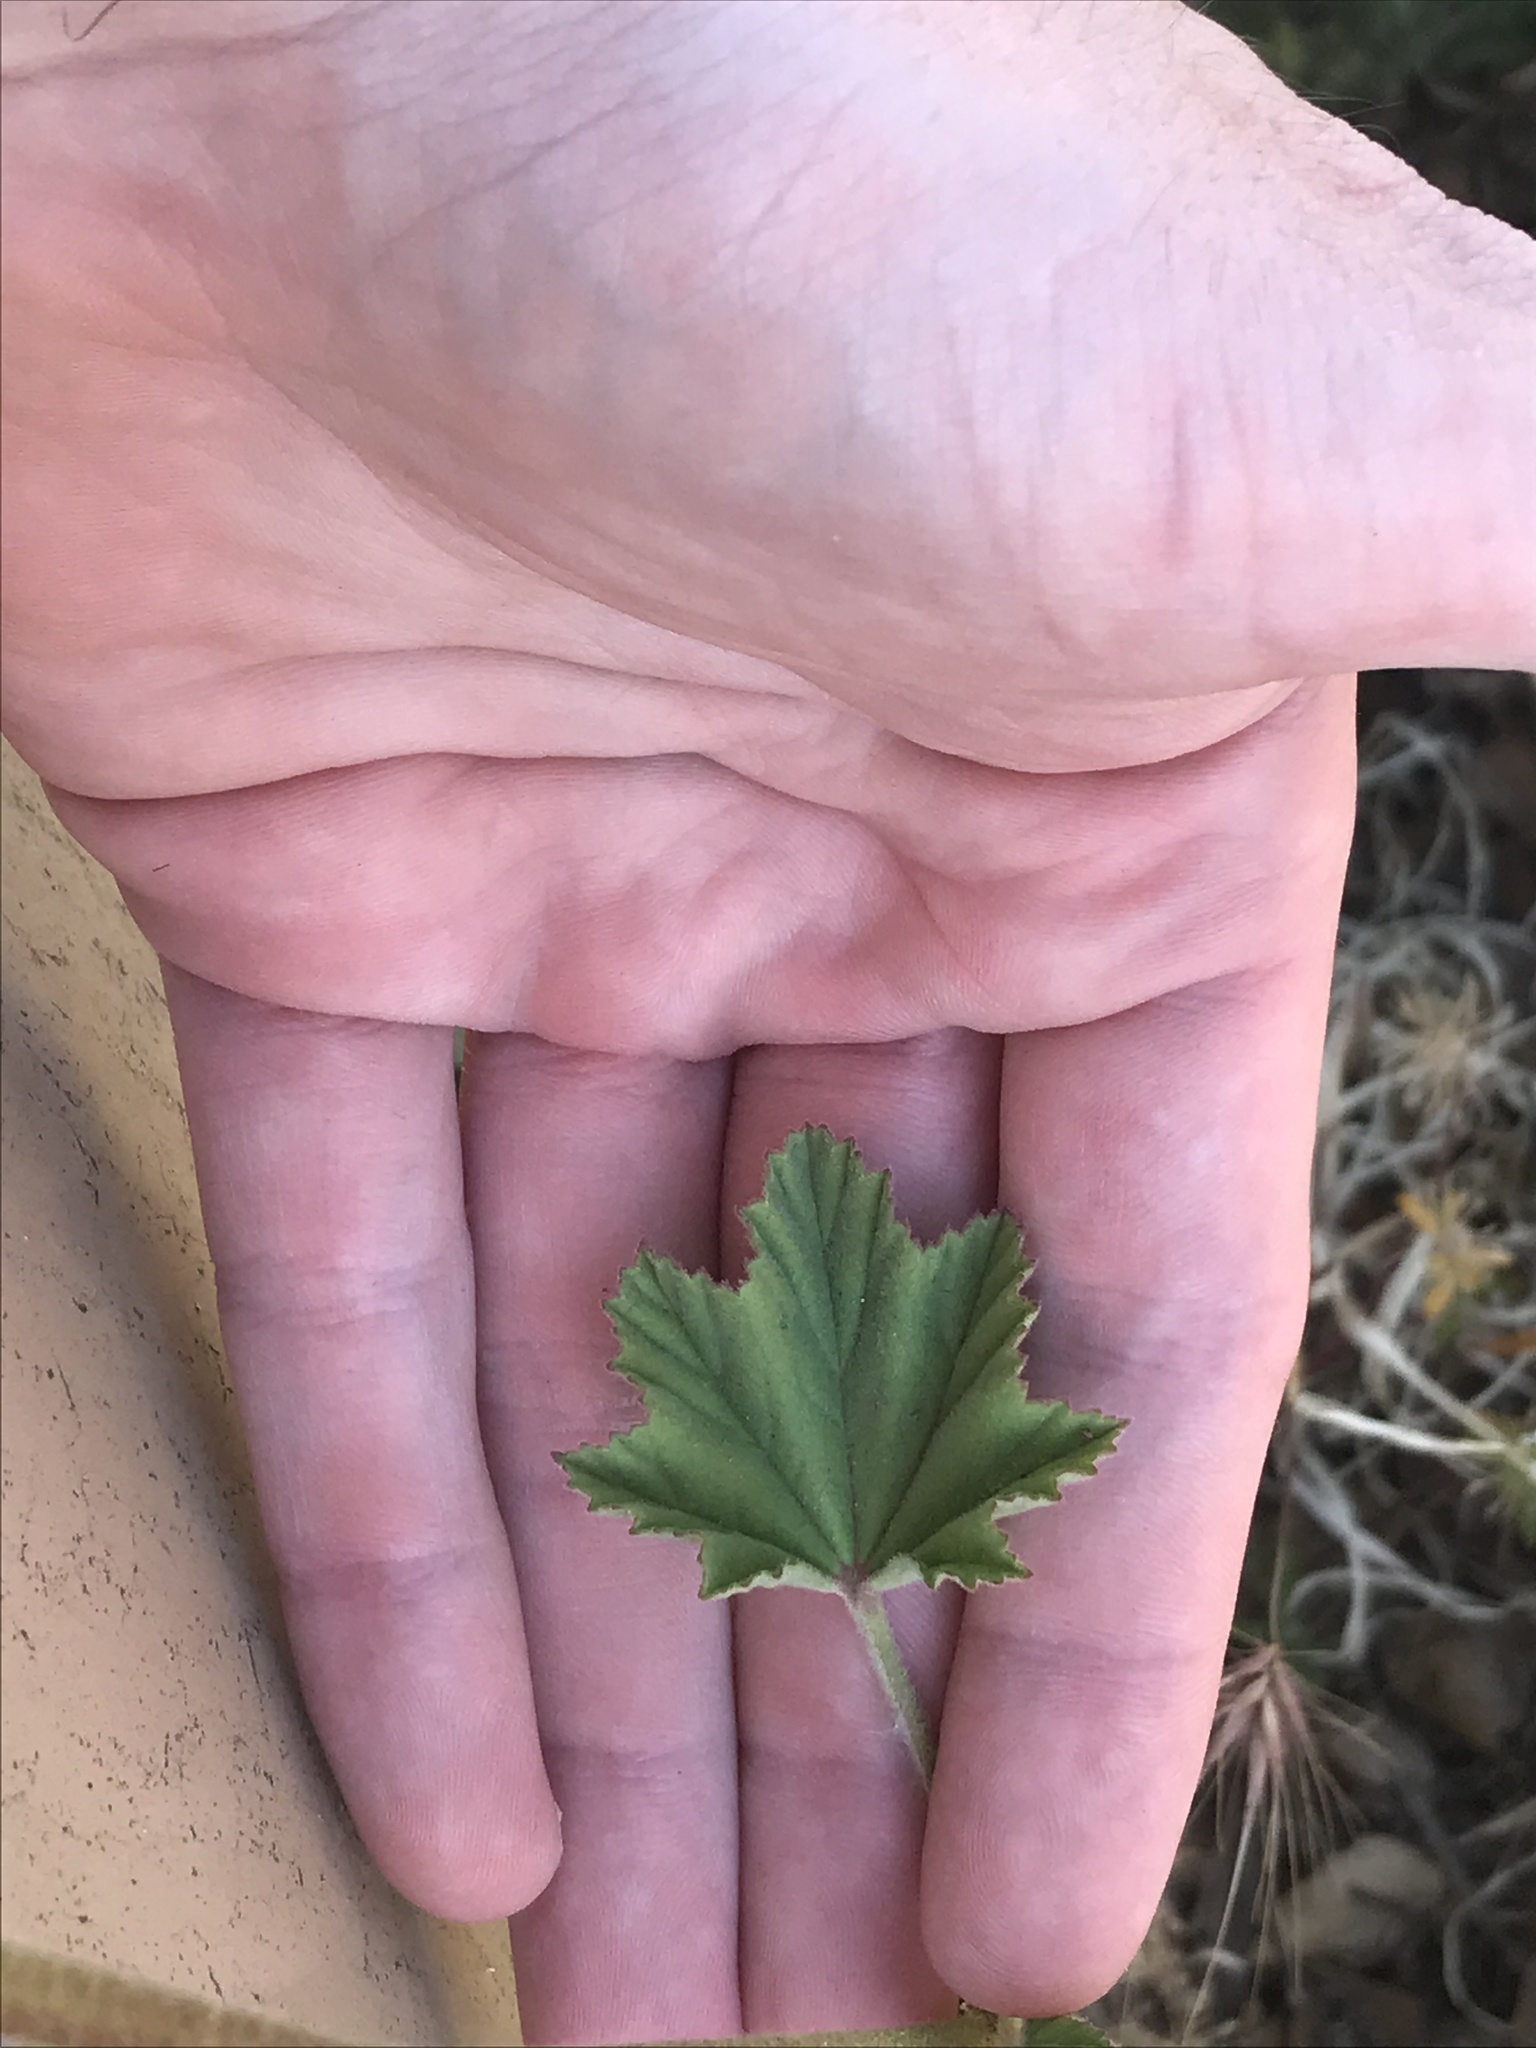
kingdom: Plantae
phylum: Tracheophyta
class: Magnoliopsida
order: Malvales
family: Malvaceae
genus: Malva
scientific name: Malva multiflora
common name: Cheeseweed
